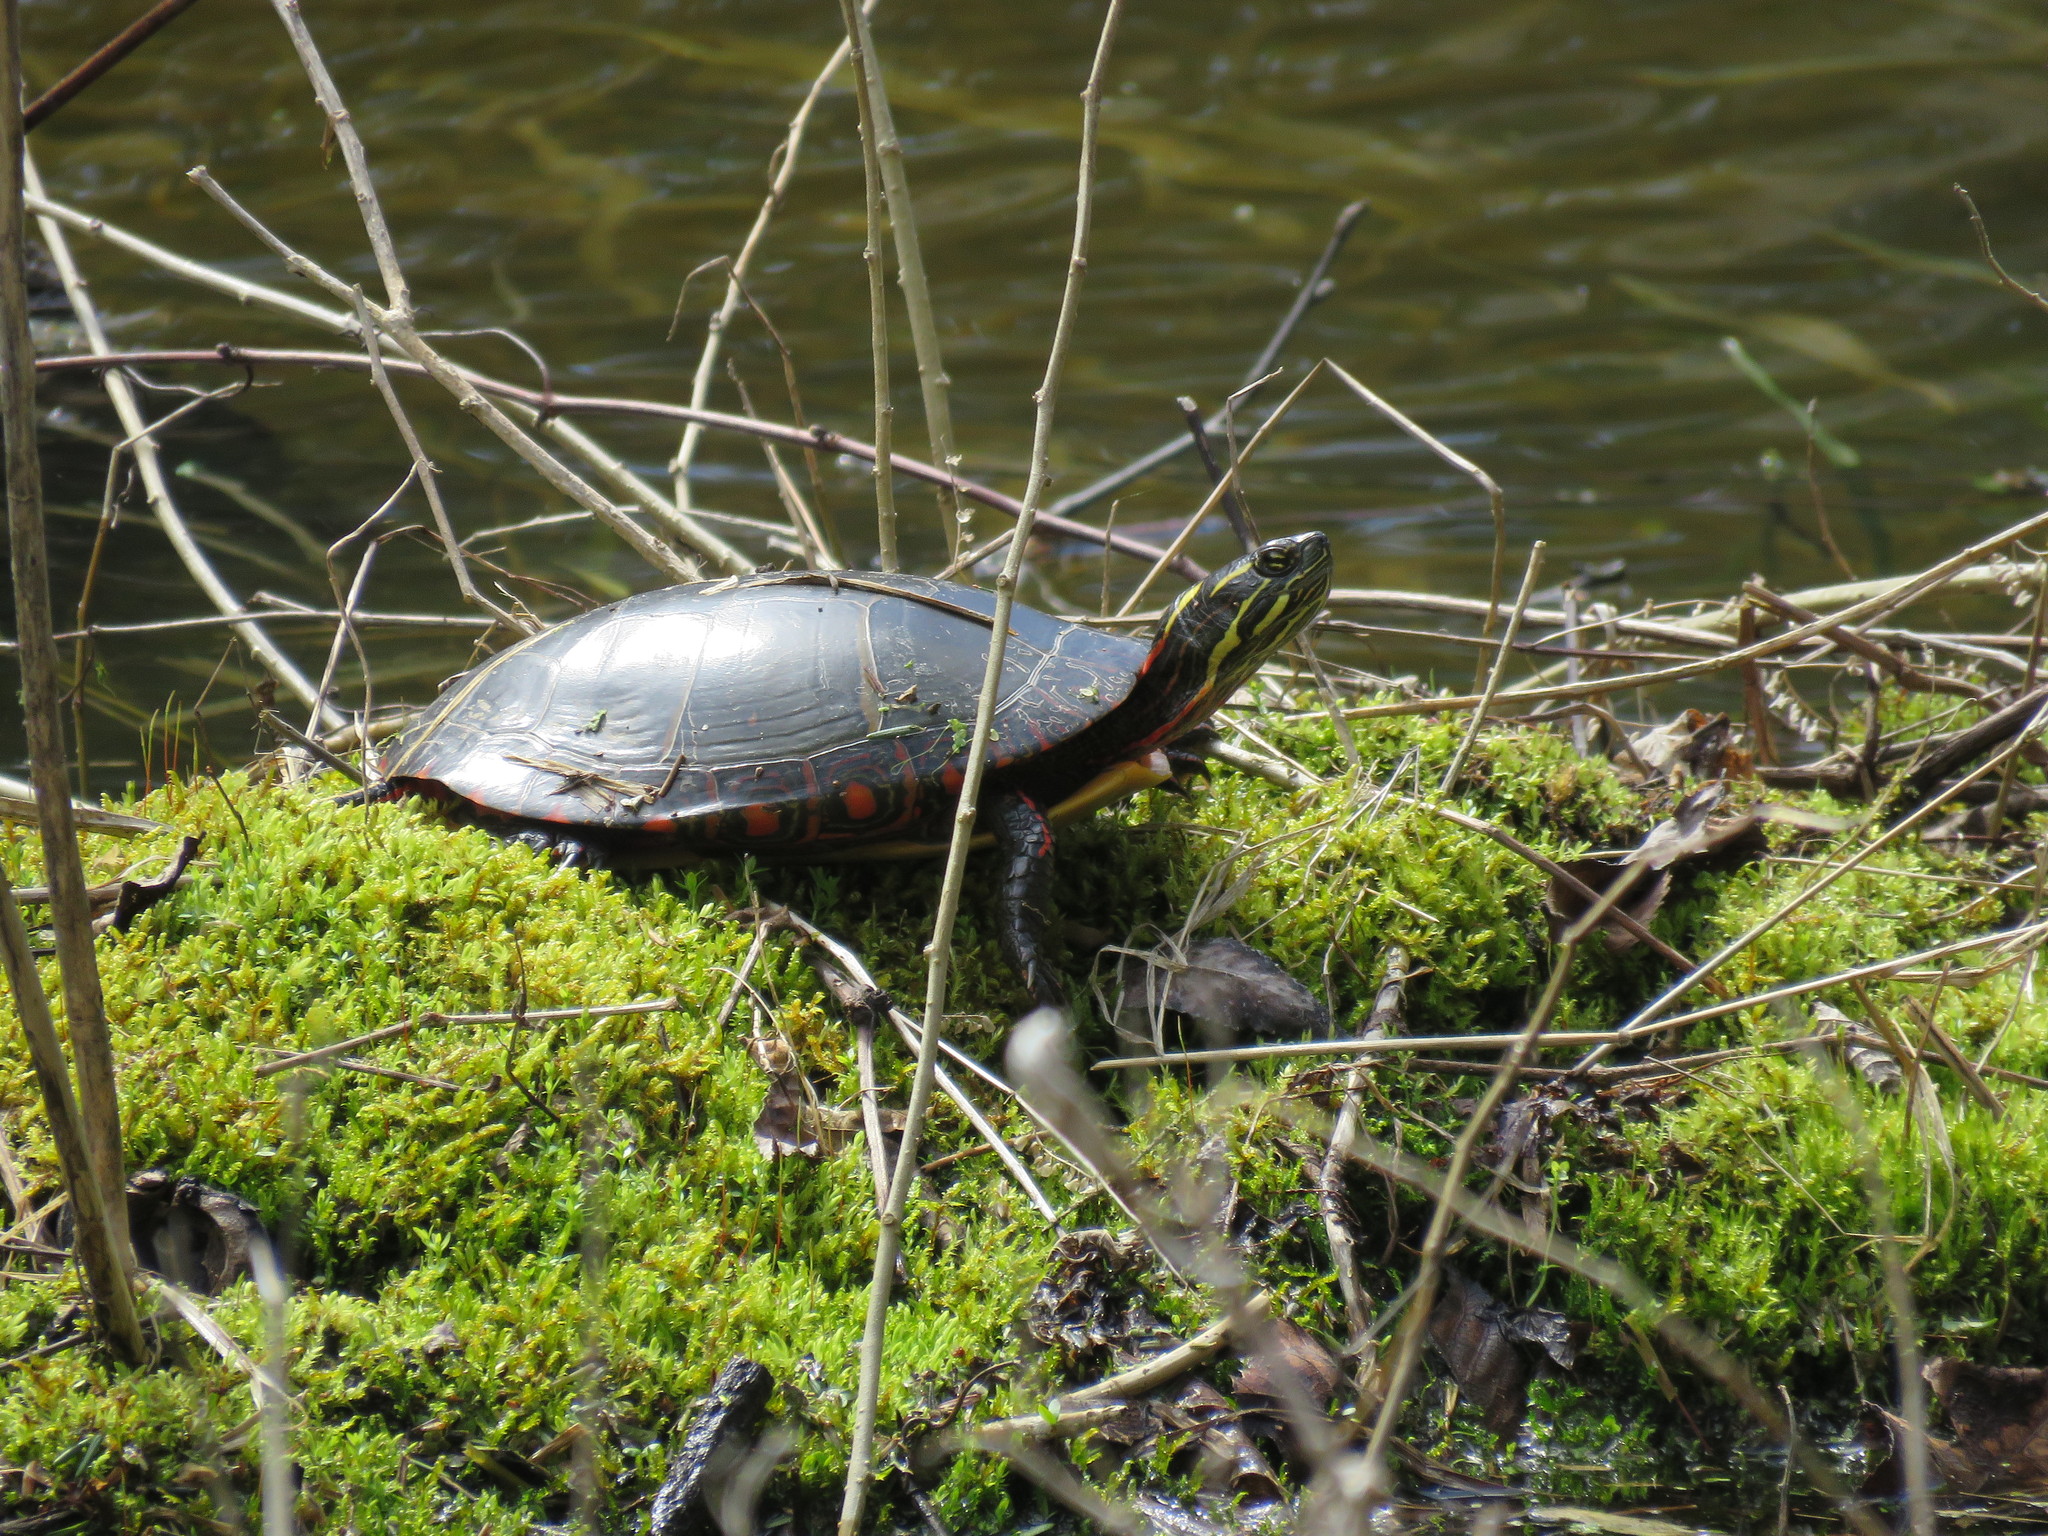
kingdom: Animalia
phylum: Chordata
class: Testudines
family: Emydidae
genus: Chrysemys
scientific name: Chrysemys picta
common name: Painted turtle
